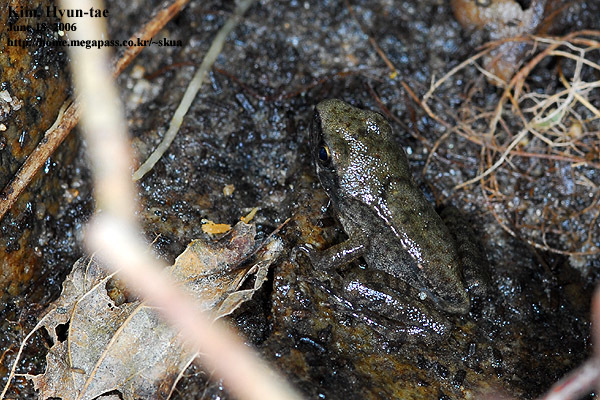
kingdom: Animalia
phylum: Chordata
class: Amphibia
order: Anura
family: Ranidae
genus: Rana
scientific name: Rana uenoi
